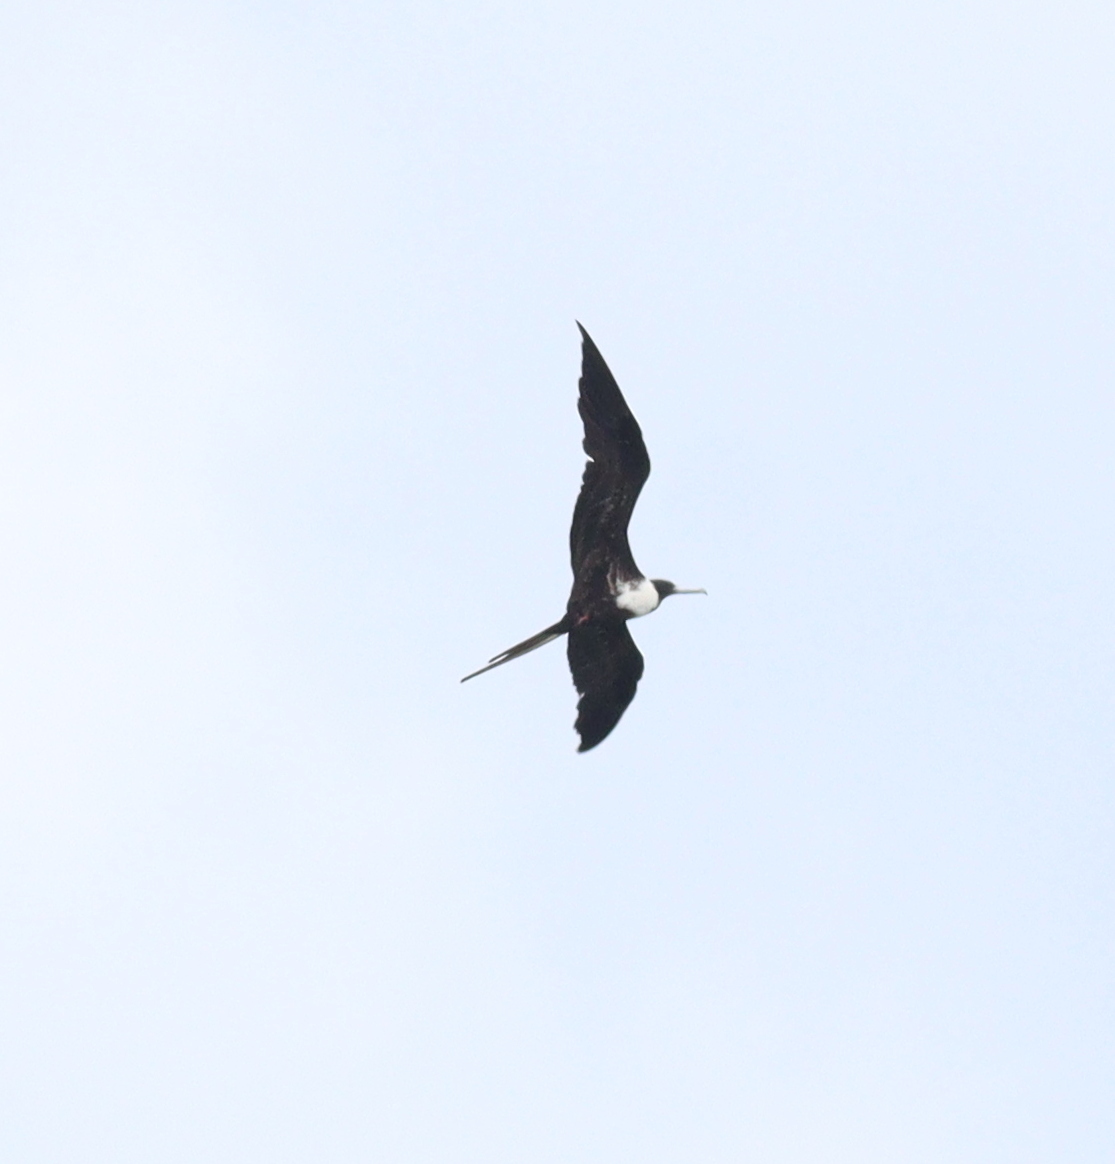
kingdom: Animalia
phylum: Chordata
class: Aves
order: Suliformes
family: Fregatidae
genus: Fregata
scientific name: Fregata magnificens
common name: Magnificent frigatebird
